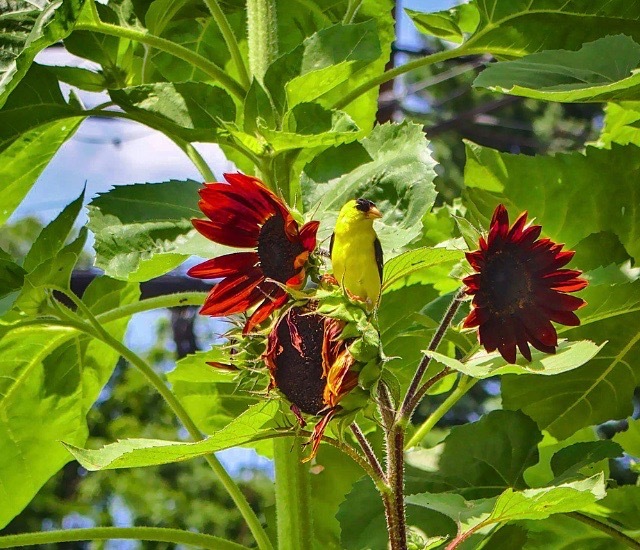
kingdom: Animalia
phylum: Chordata
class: Aves
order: Passeriformes
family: Fringillidae
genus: Spinus
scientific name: Spinus tristis
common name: American goldfinch
